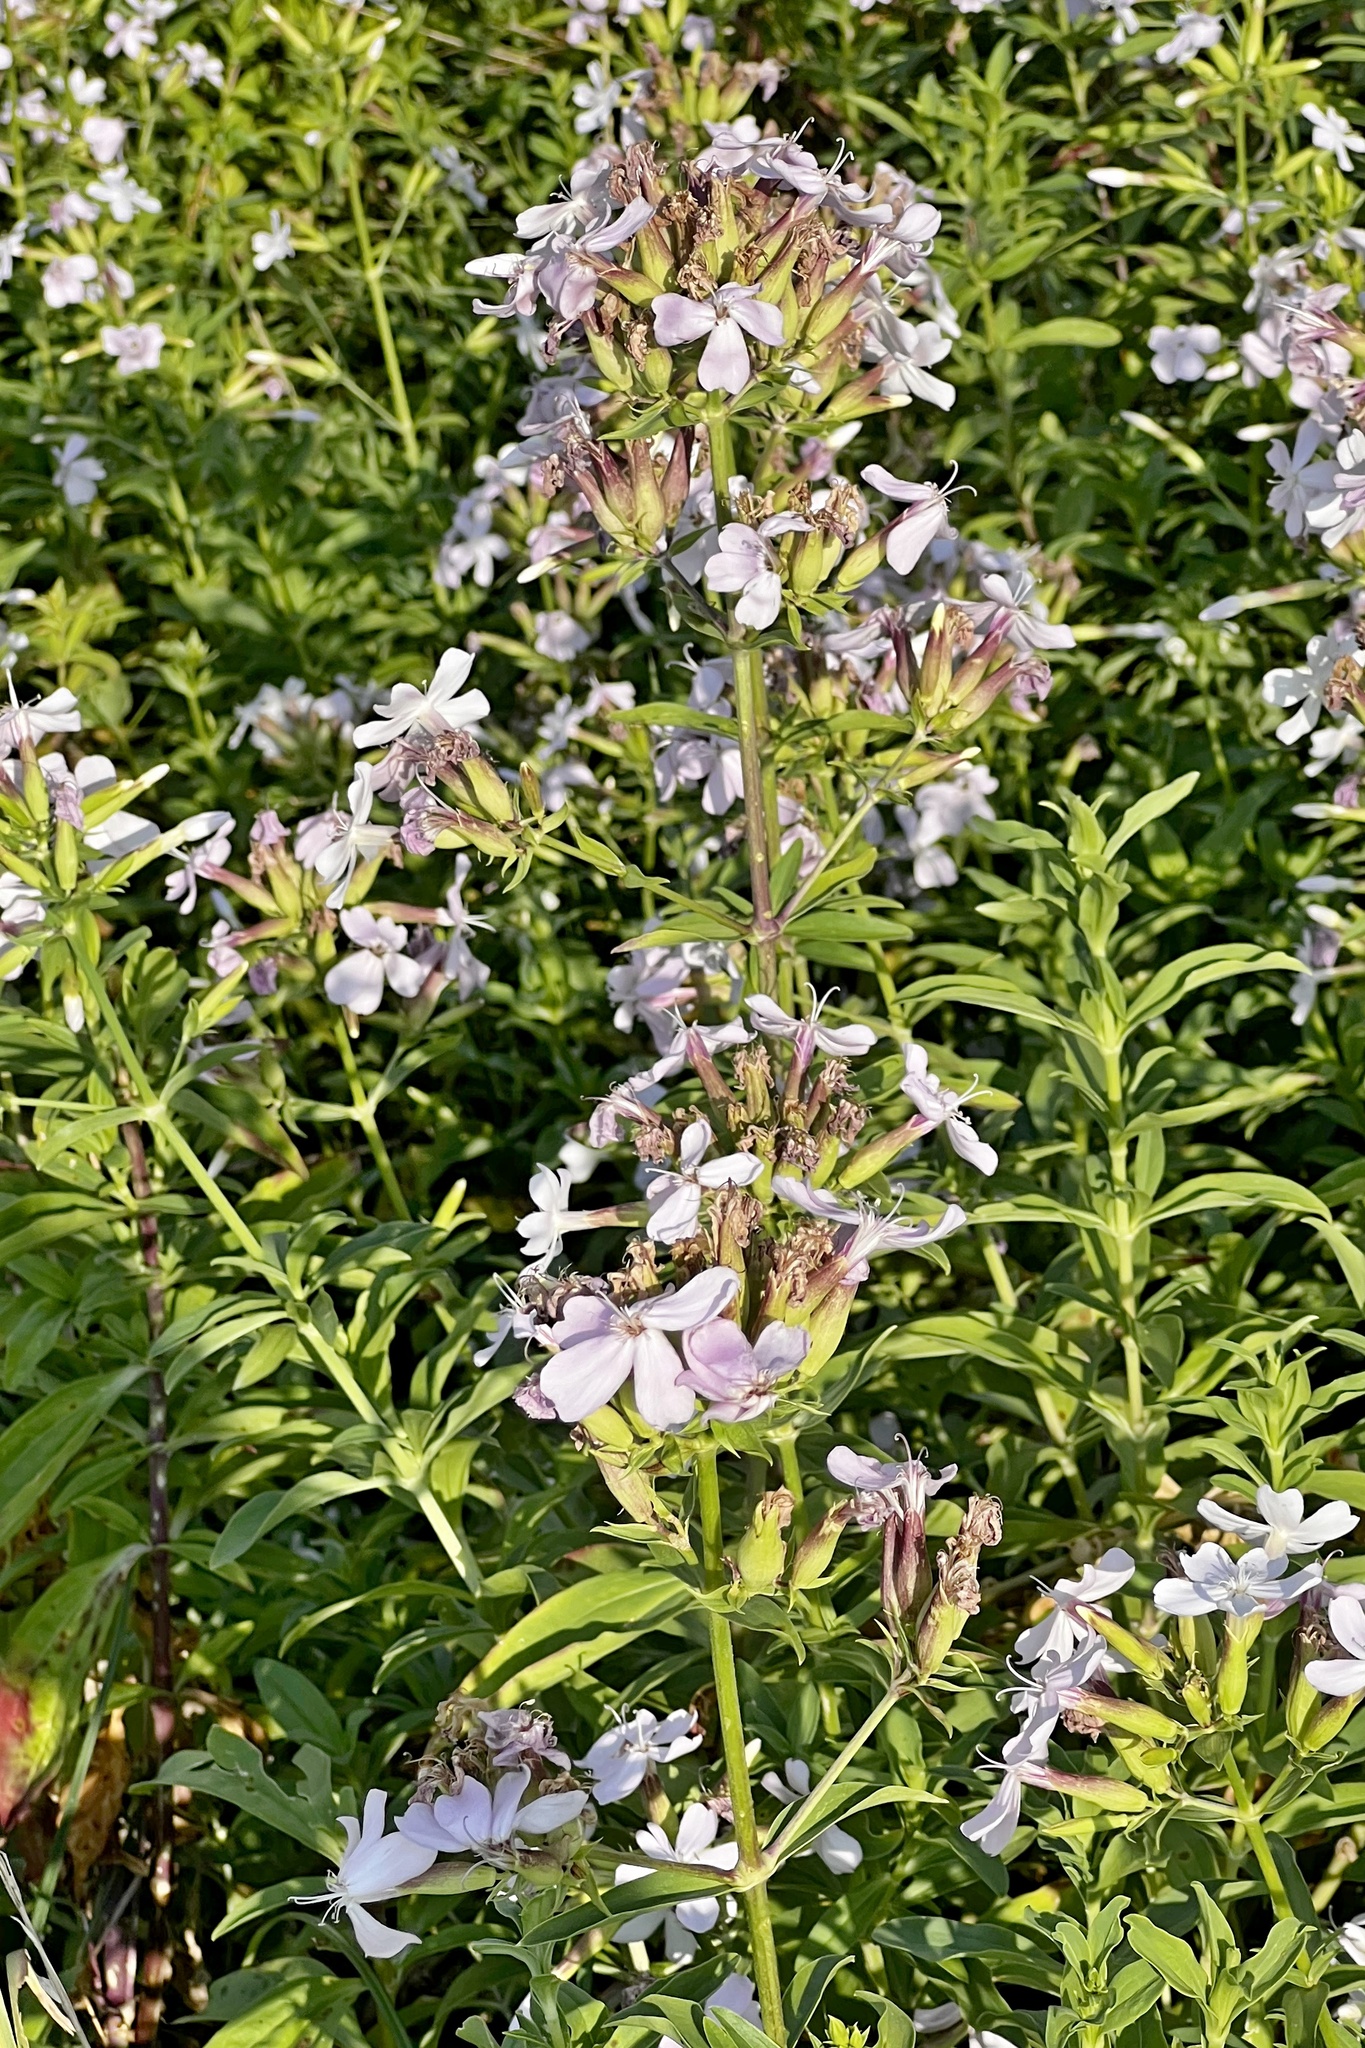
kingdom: Plantae
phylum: Tracheophyta
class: Magnoliopsida
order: Caryophyllales
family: Caryophyllaceae
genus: Saponaria
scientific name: Saponaria officinalis
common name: Soapwort
